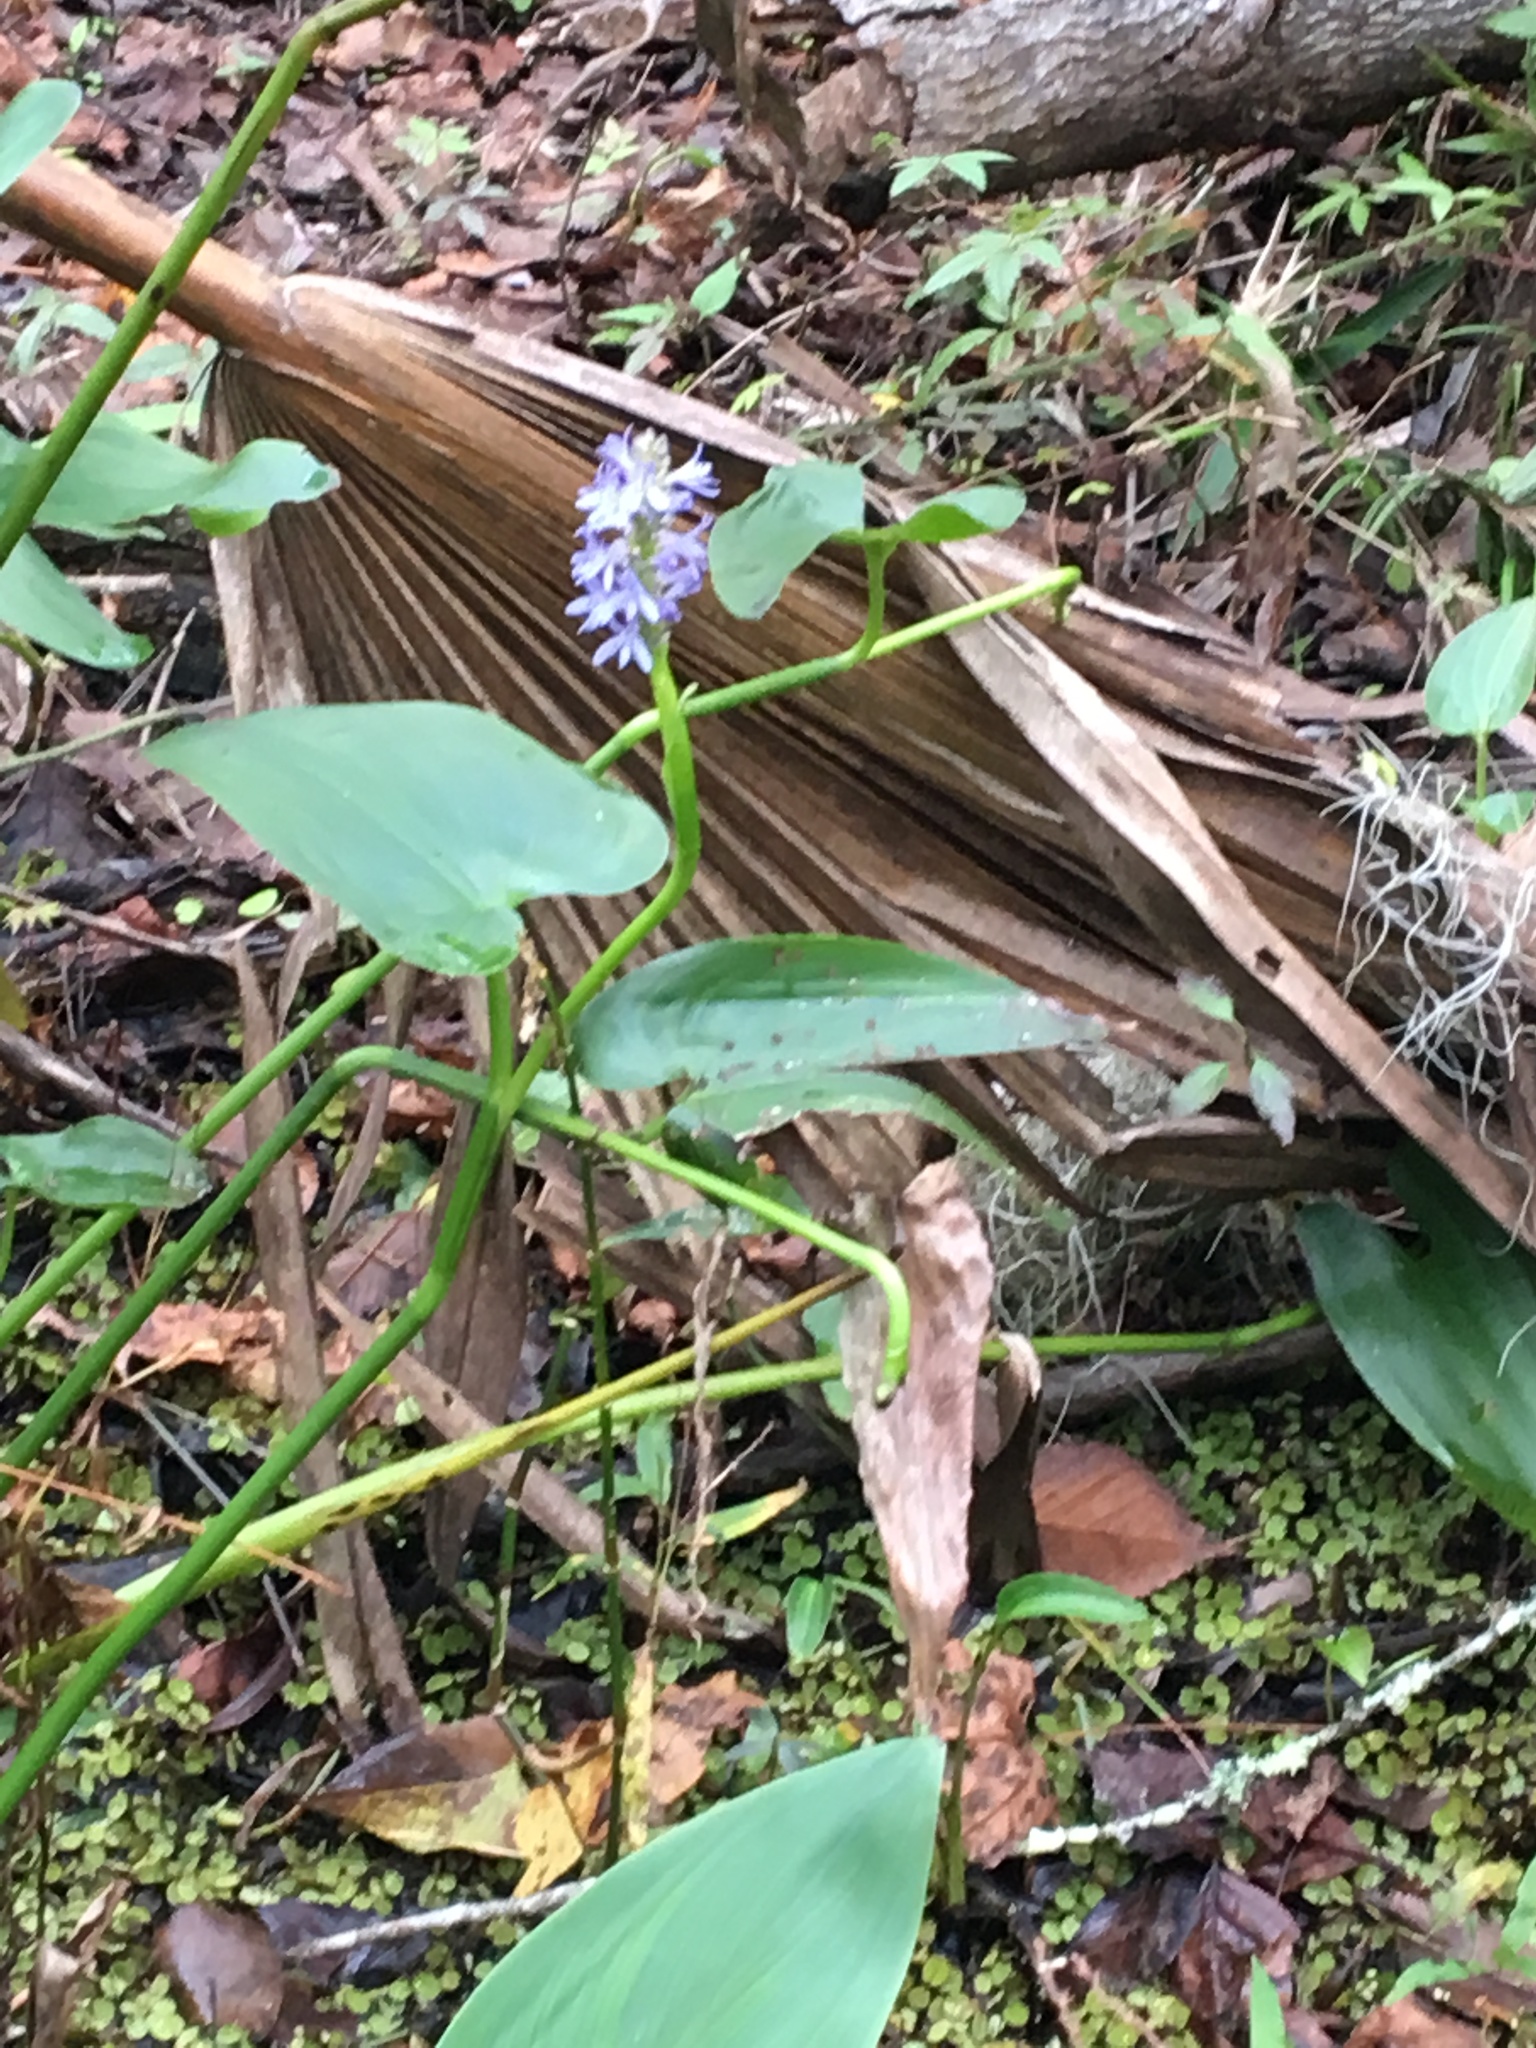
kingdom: Plantae
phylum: Tracheophyta
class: Liliopsida
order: Commelinales
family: Pontederiaceae
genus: Pontederia
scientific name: Pontederia cordata
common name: Pickerelweed
